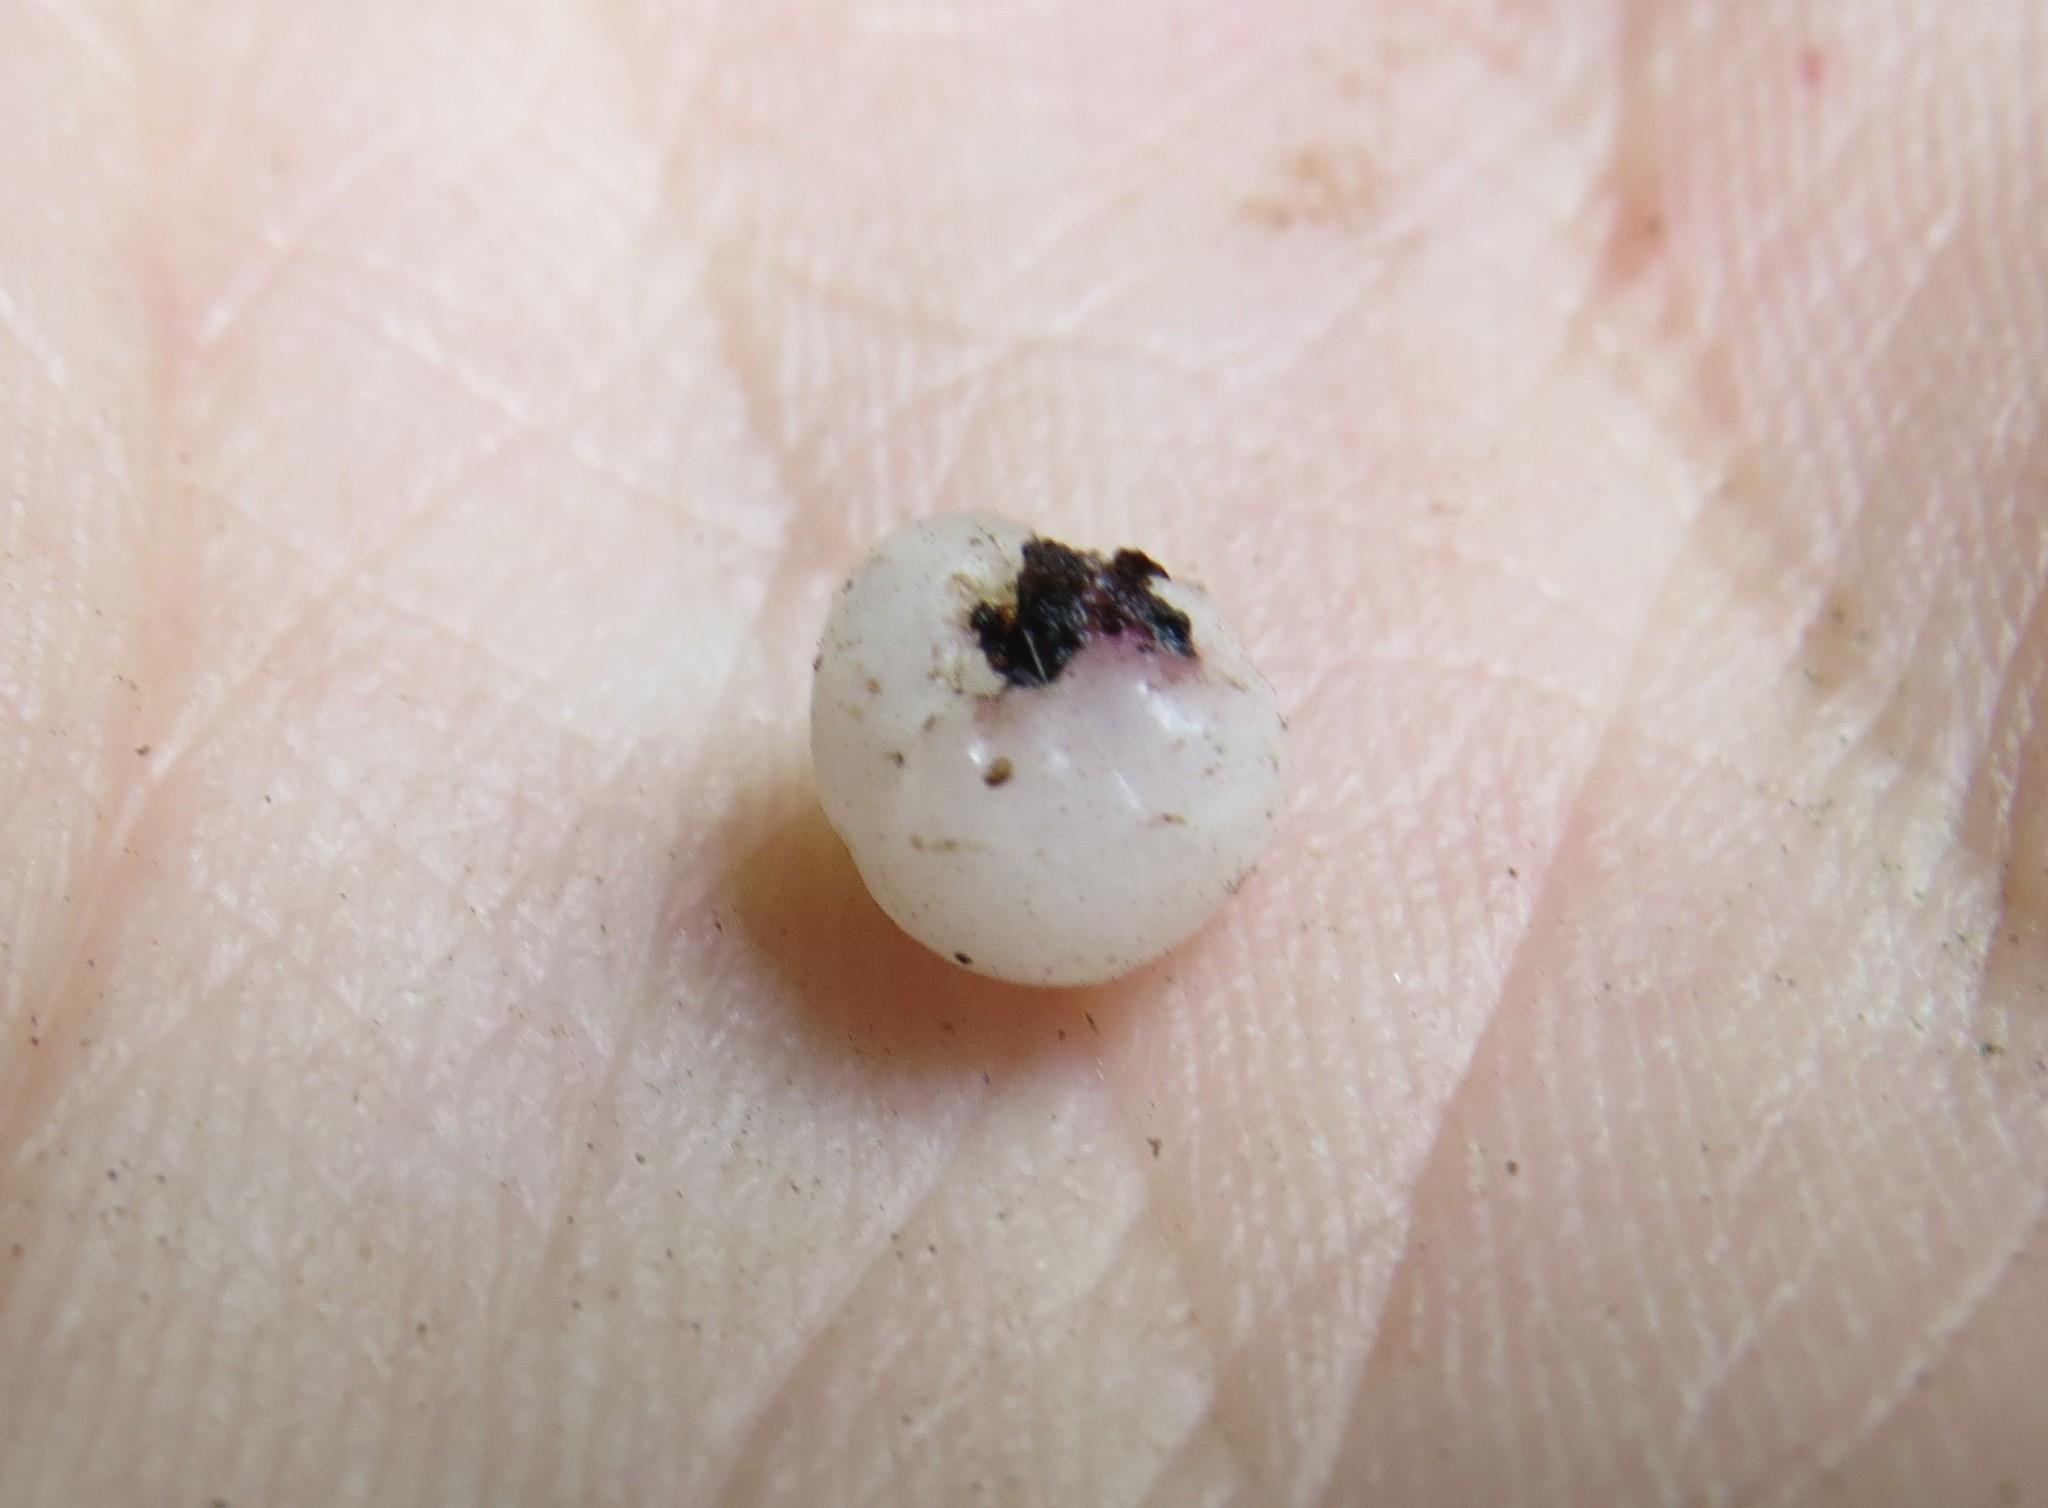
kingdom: Plantae
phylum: Tracheophyta
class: Magnoliopsida
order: Rosales
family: Urticaceae
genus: Urera
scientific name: Urera nitida
